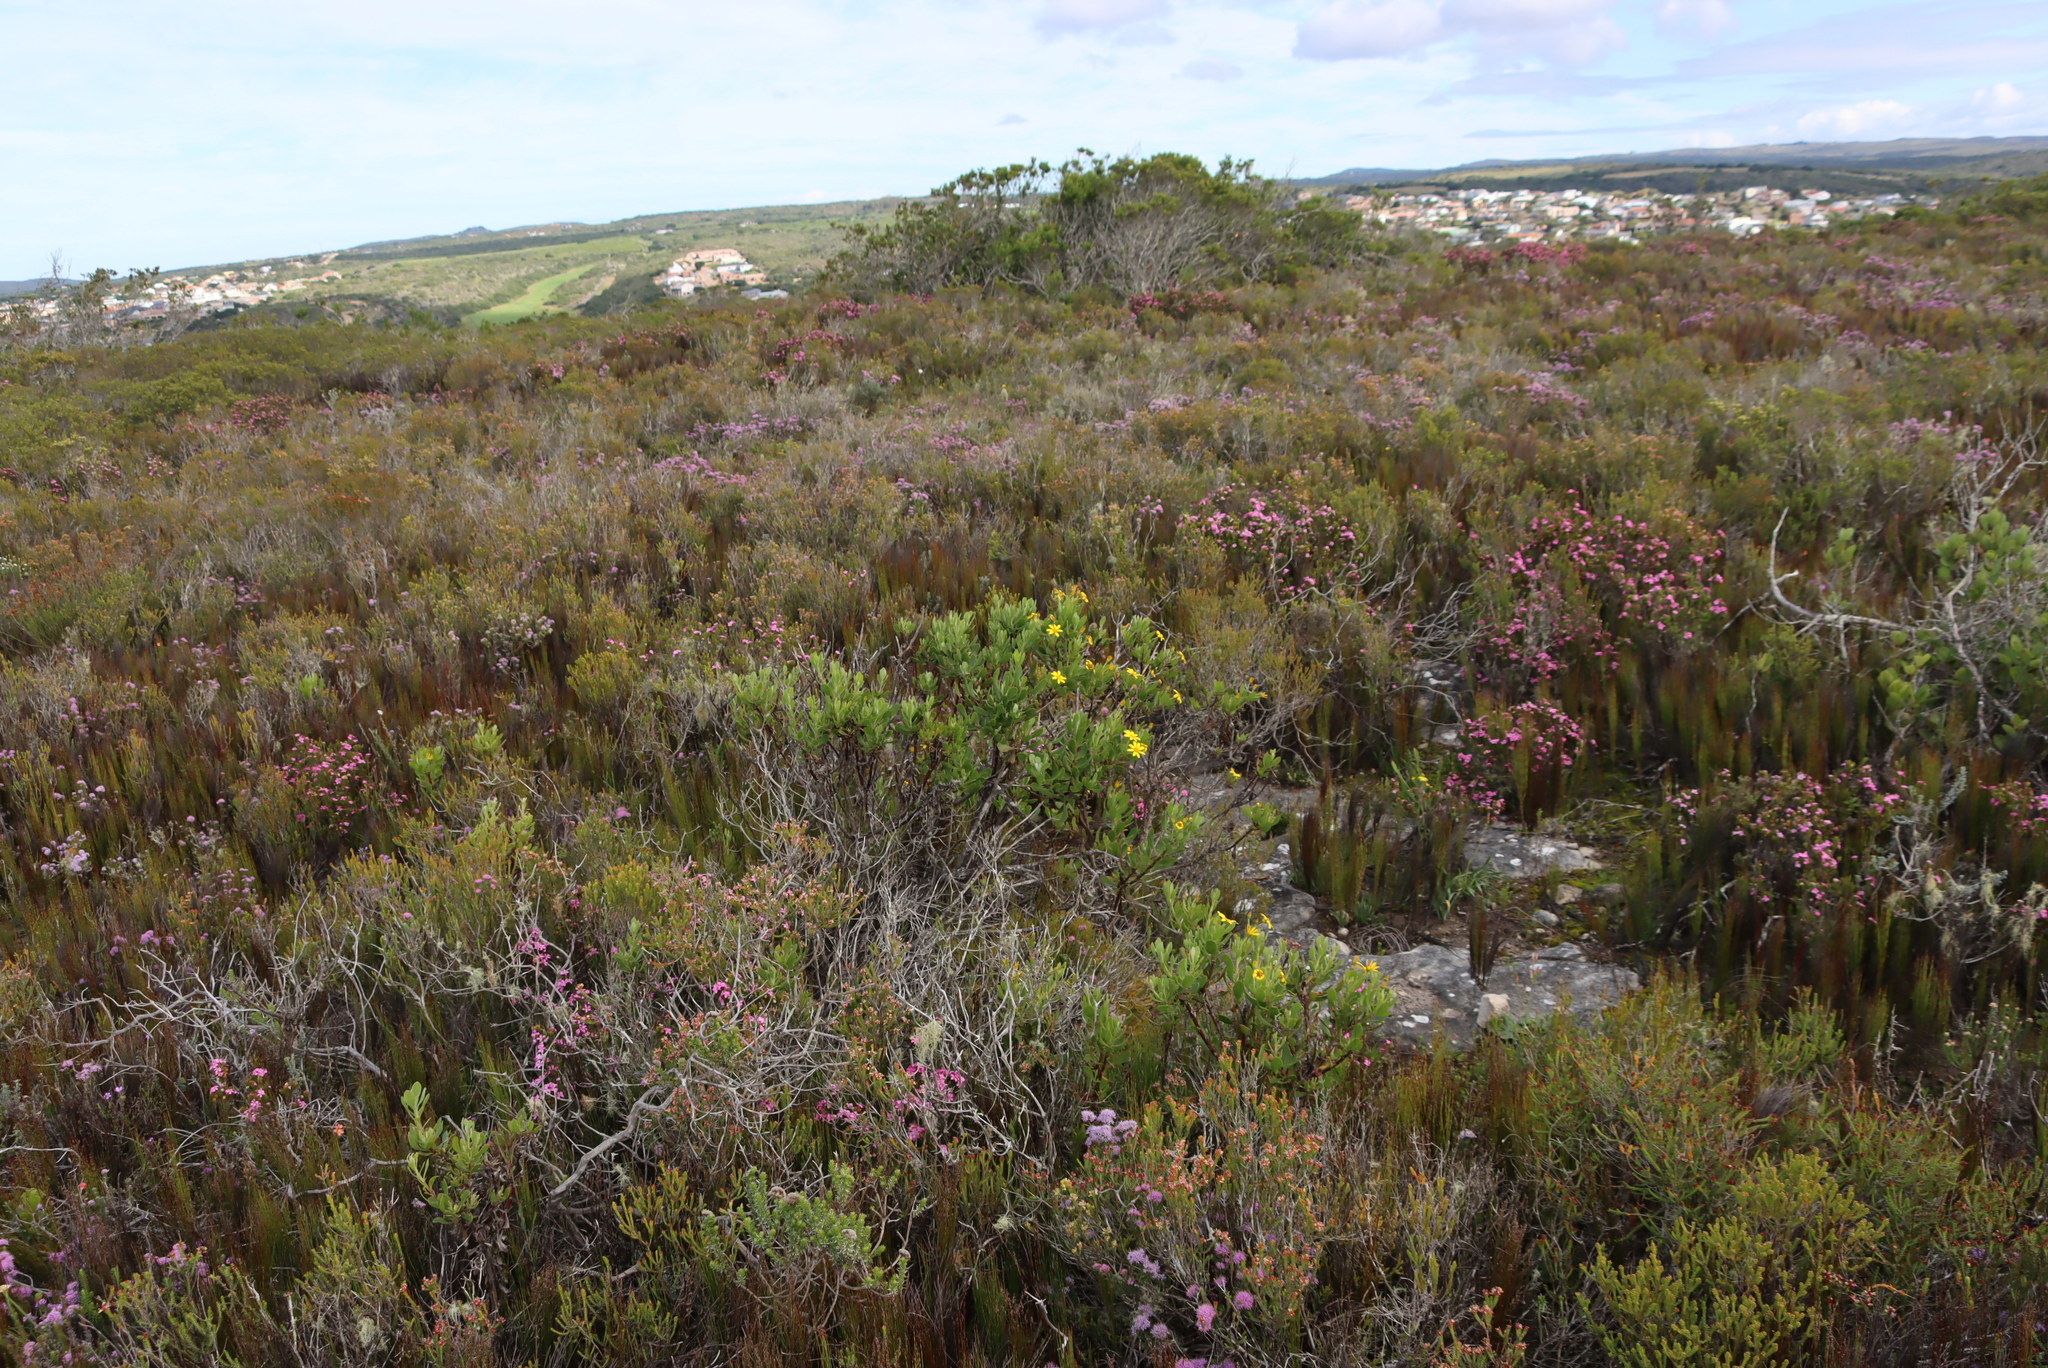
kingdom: Plantae
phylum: Tracheophyta
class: Magnoliopsida
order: Asterales
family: Asteraceae
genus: Osteospermum
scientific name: Osteospermum moniliferum
